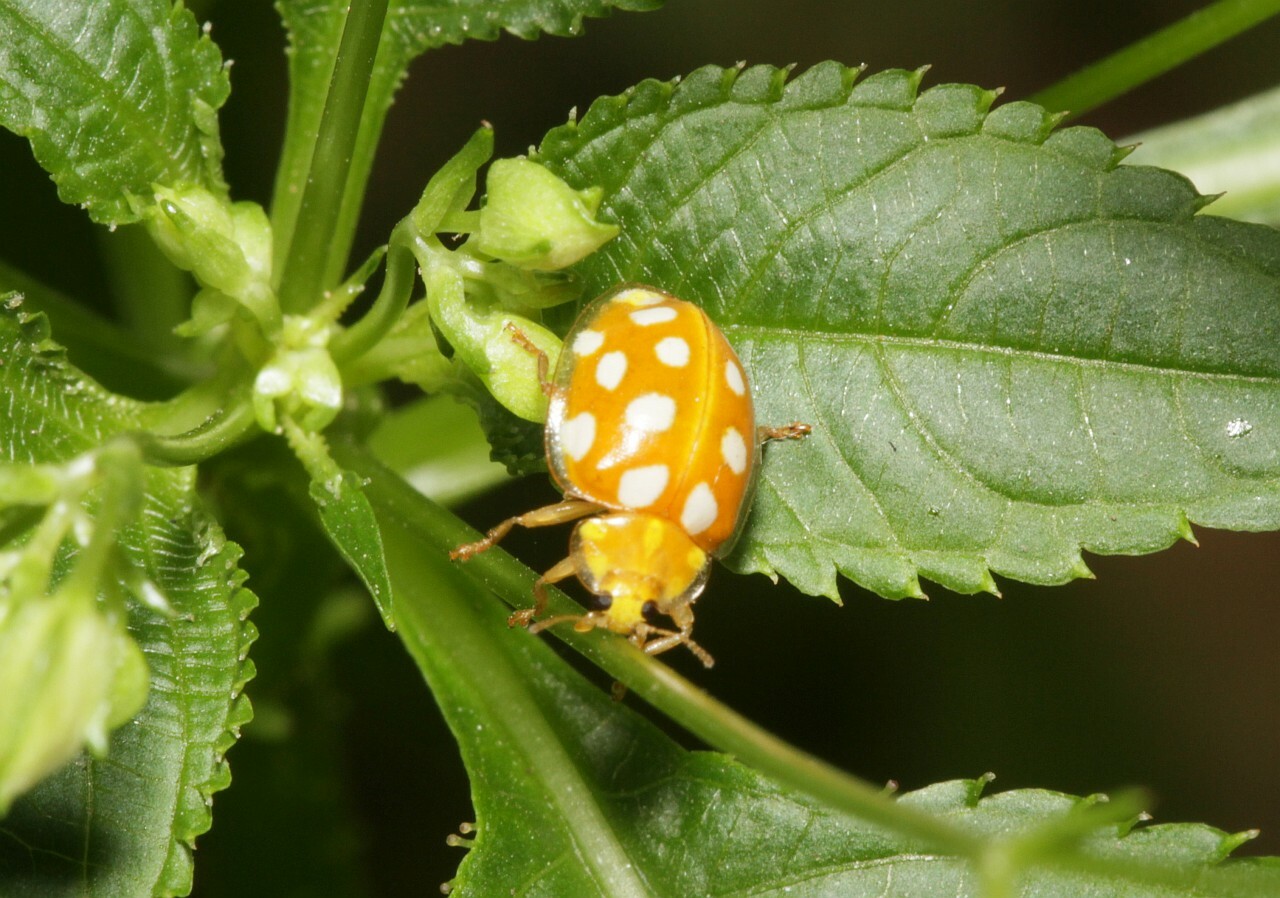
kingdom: Animalia
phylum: Arthropoda
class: Insecta
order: Coleoptera
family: Coccinellidae
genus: Halyzia
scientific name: Halyzia sedecimguttata
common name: Orange ladybird
